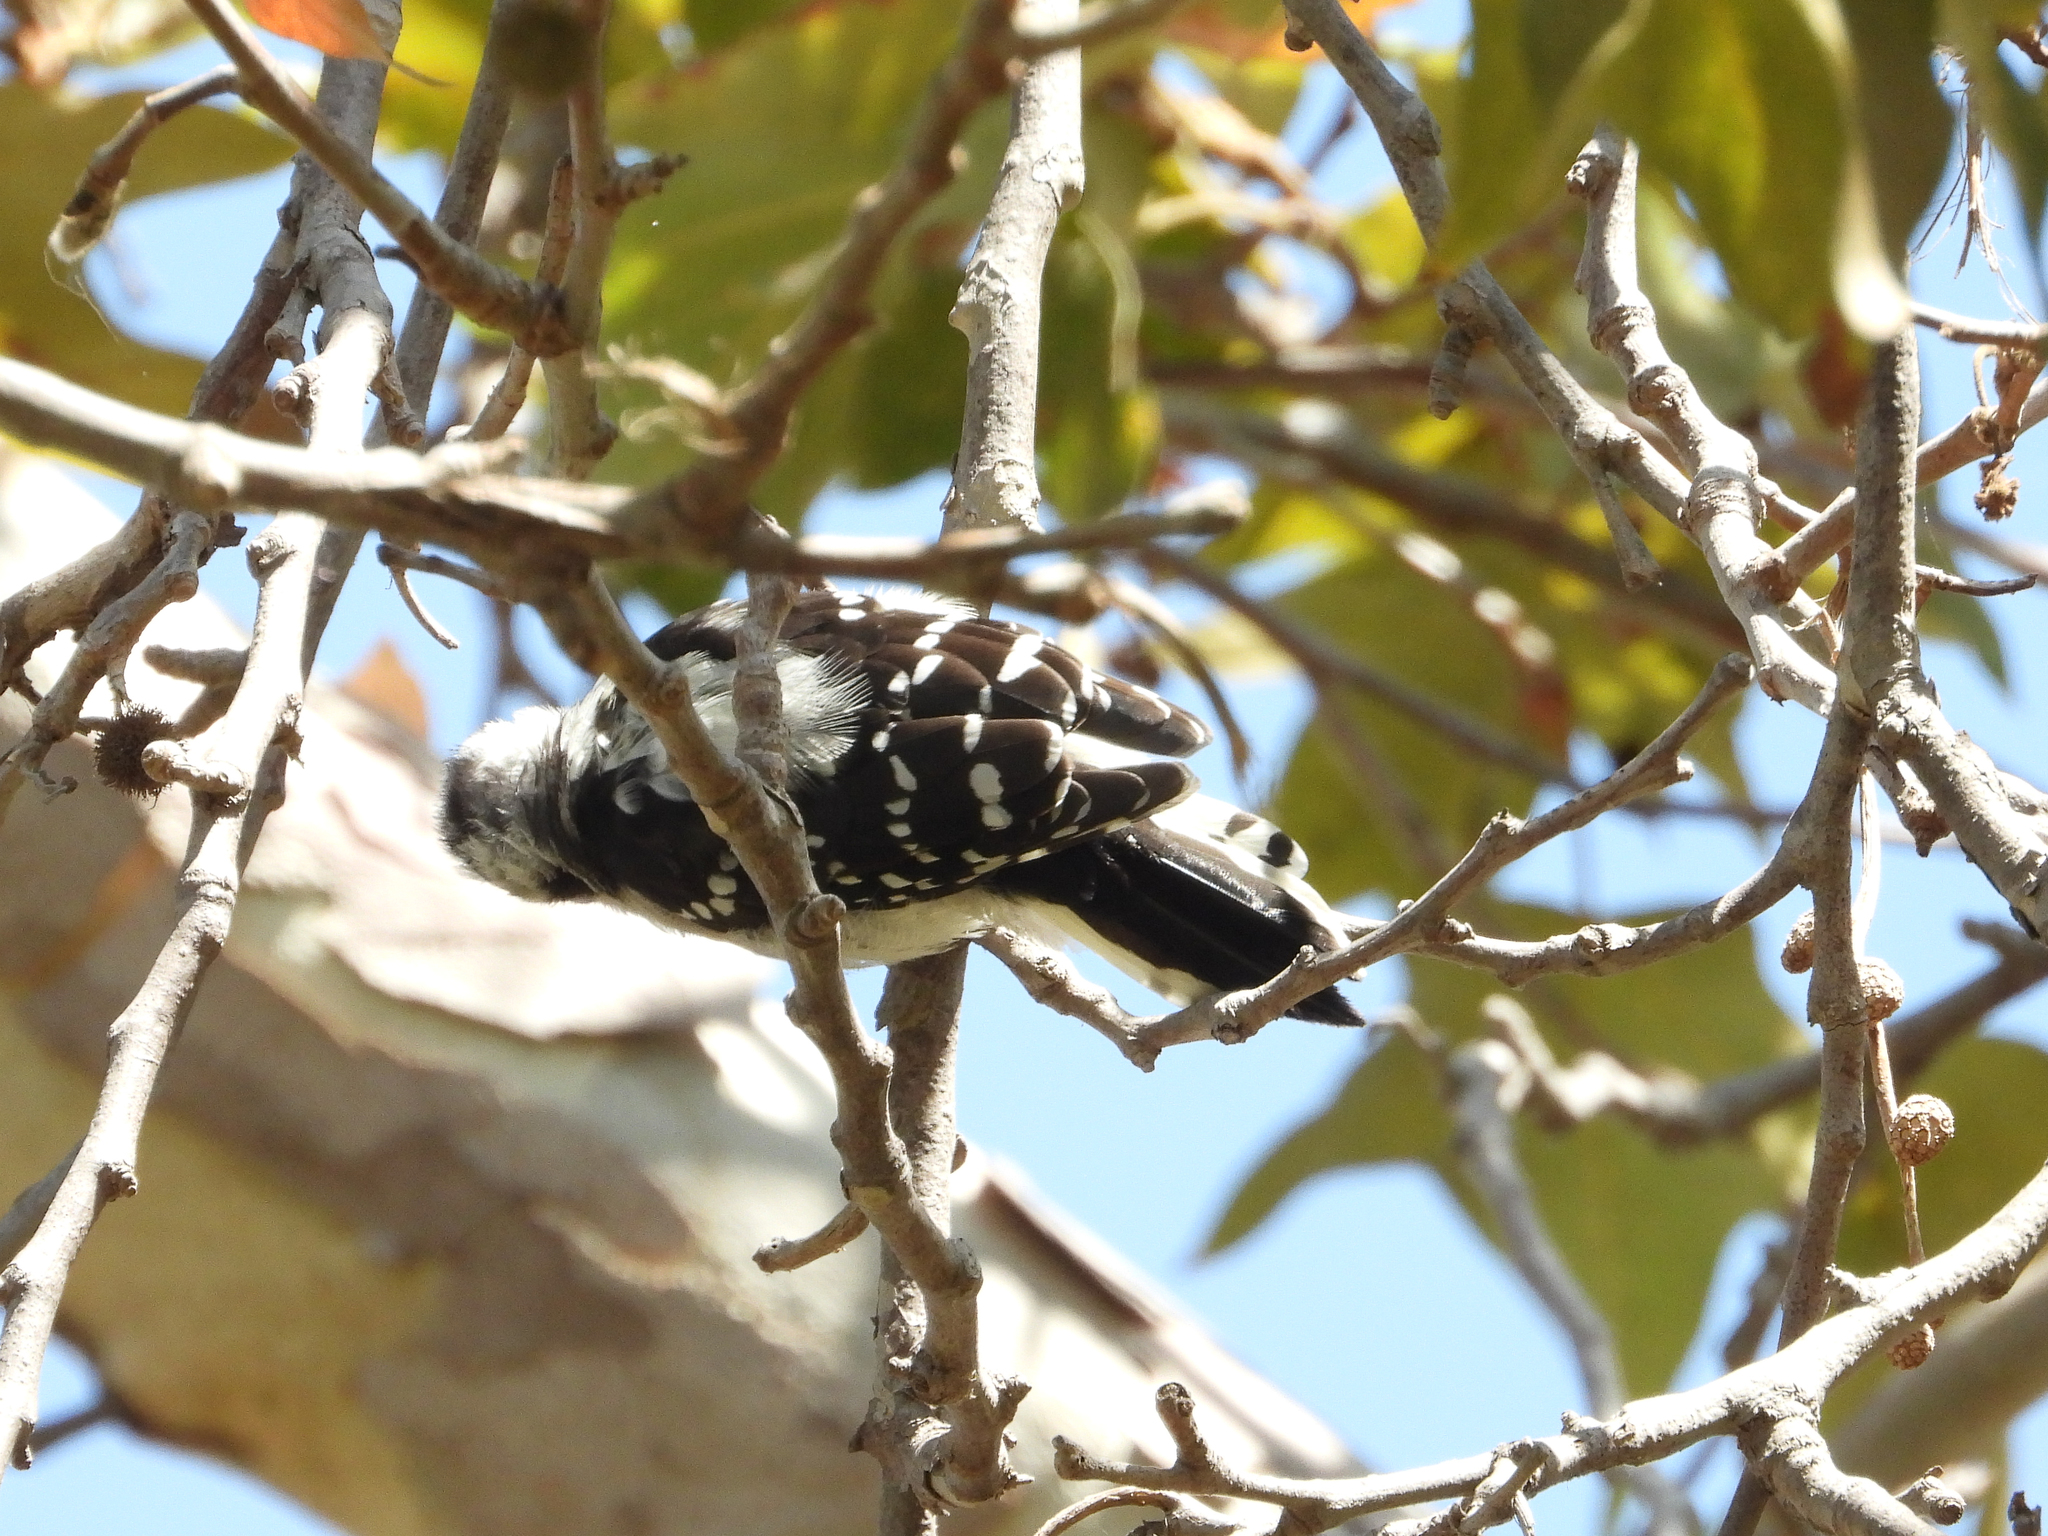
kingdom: Animalia
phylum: Chordata
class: Aves
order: Piciformes
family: Picidae
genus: Dryobates
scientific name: Dryobates pubescens
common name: Downy woodpecker
